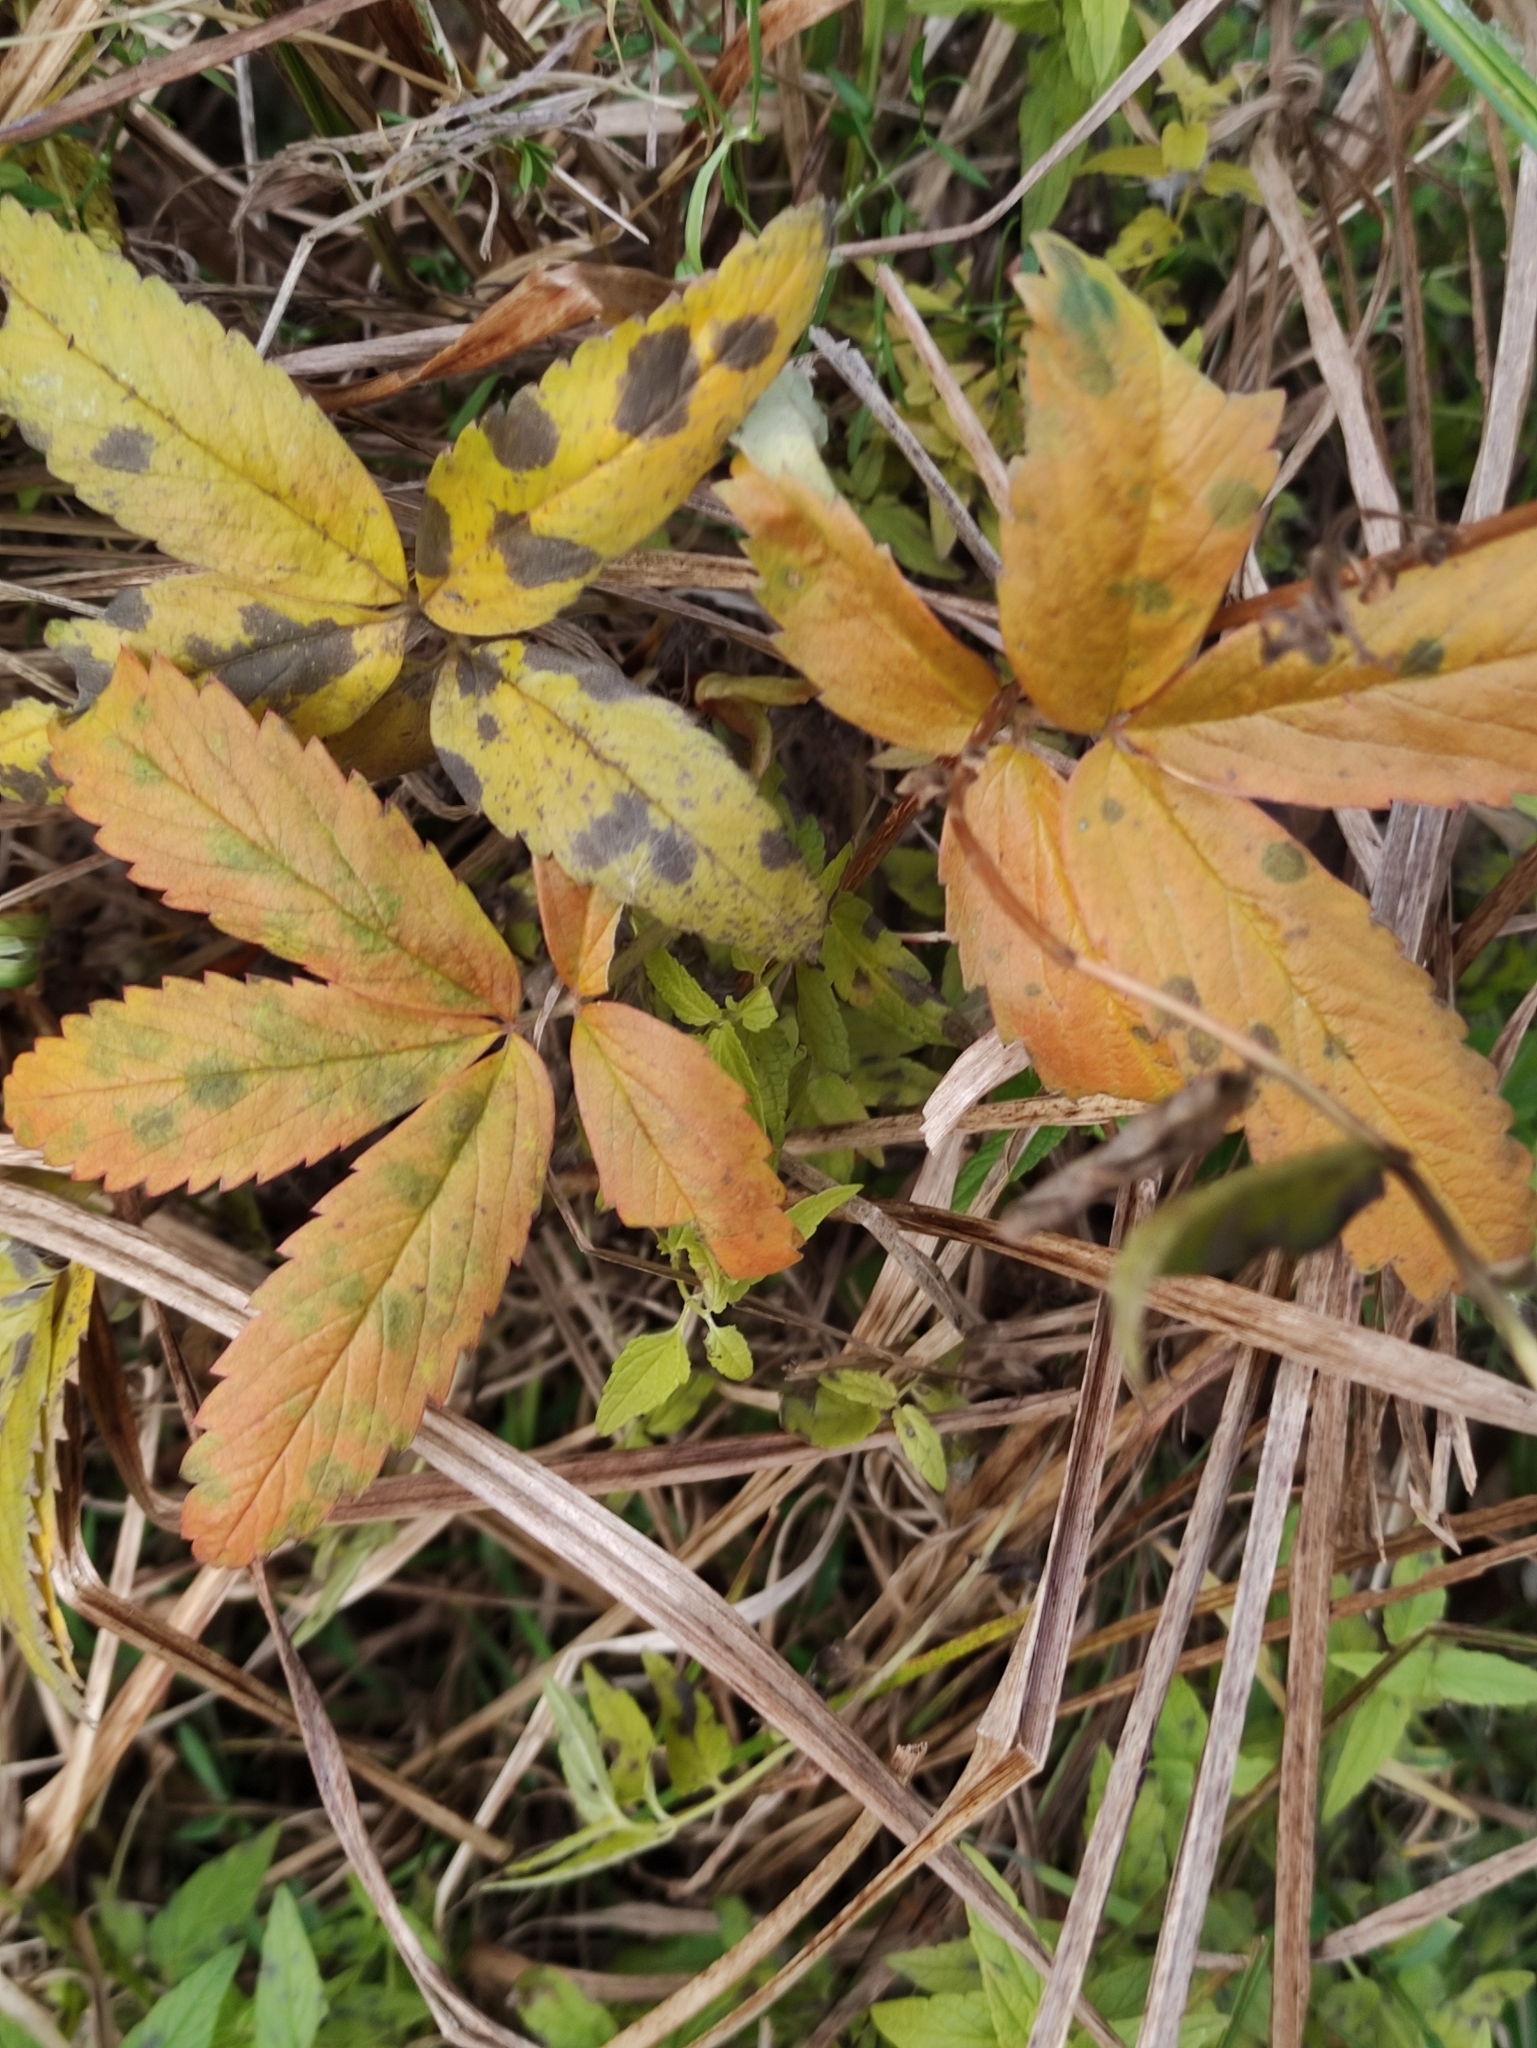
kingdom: Plantae
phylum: Tracheophyta
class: Magnoliopsida
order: Rosales
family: Rosaceae
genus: Comarum
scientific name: Comarum palustre
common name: Marsh cinquefoil
